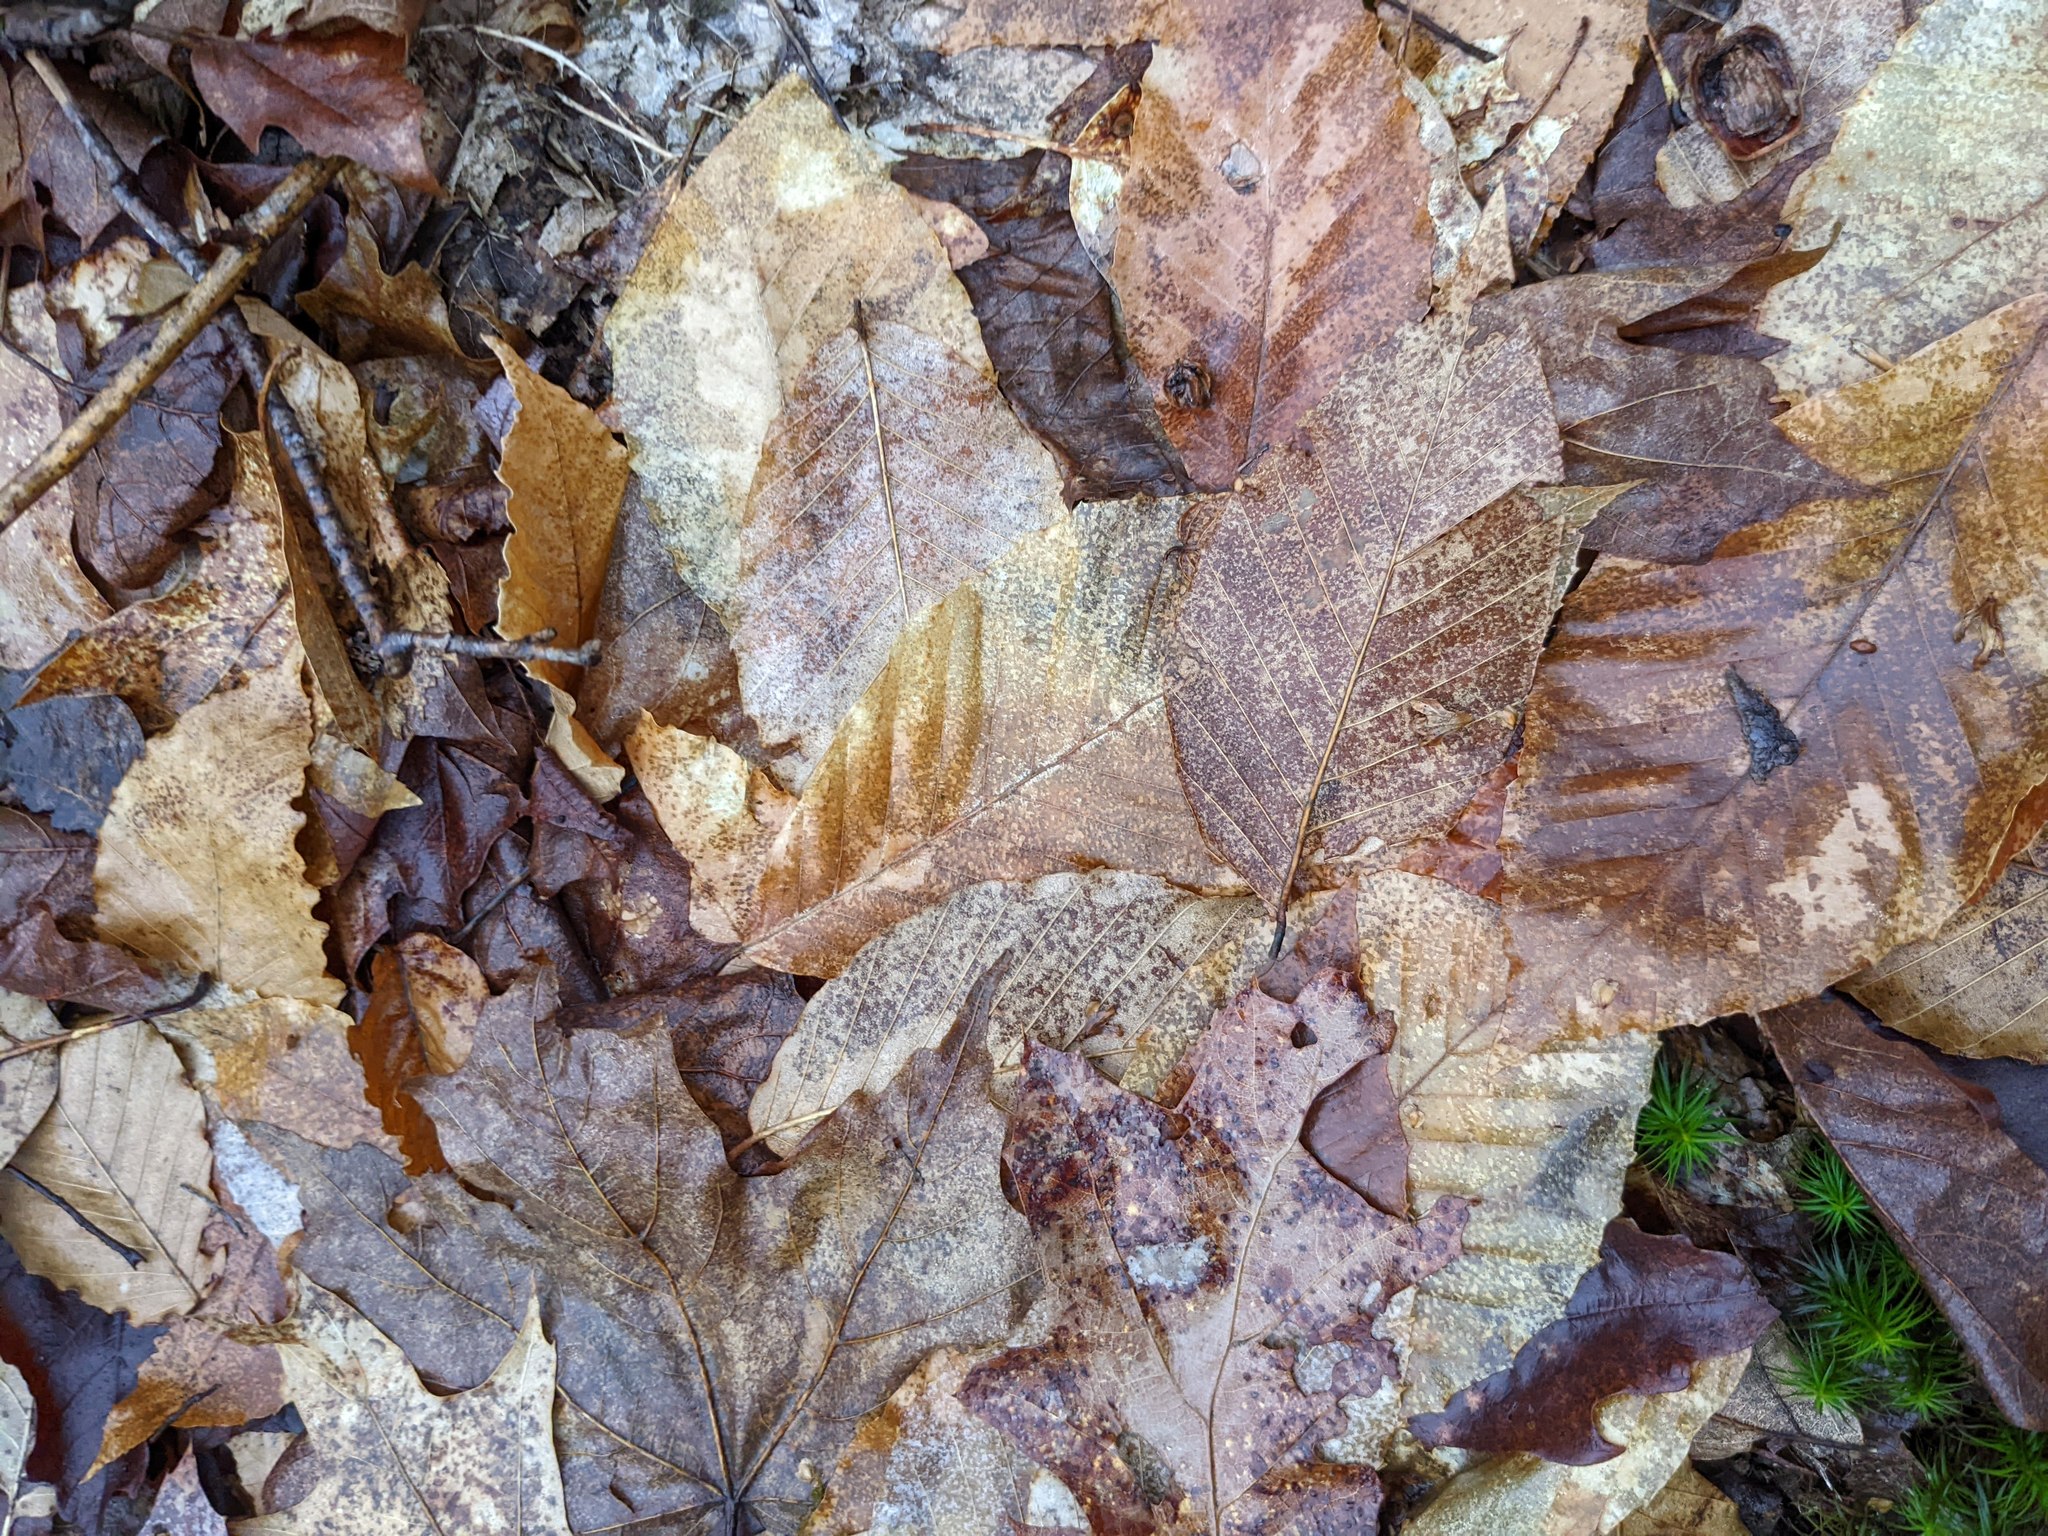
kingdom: Plantae
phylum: Tracheophyta
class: Magnoliopsida
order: Fagales
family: Fagaceae
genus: Fagus
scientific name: Fagus grandifolia
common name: American beech
